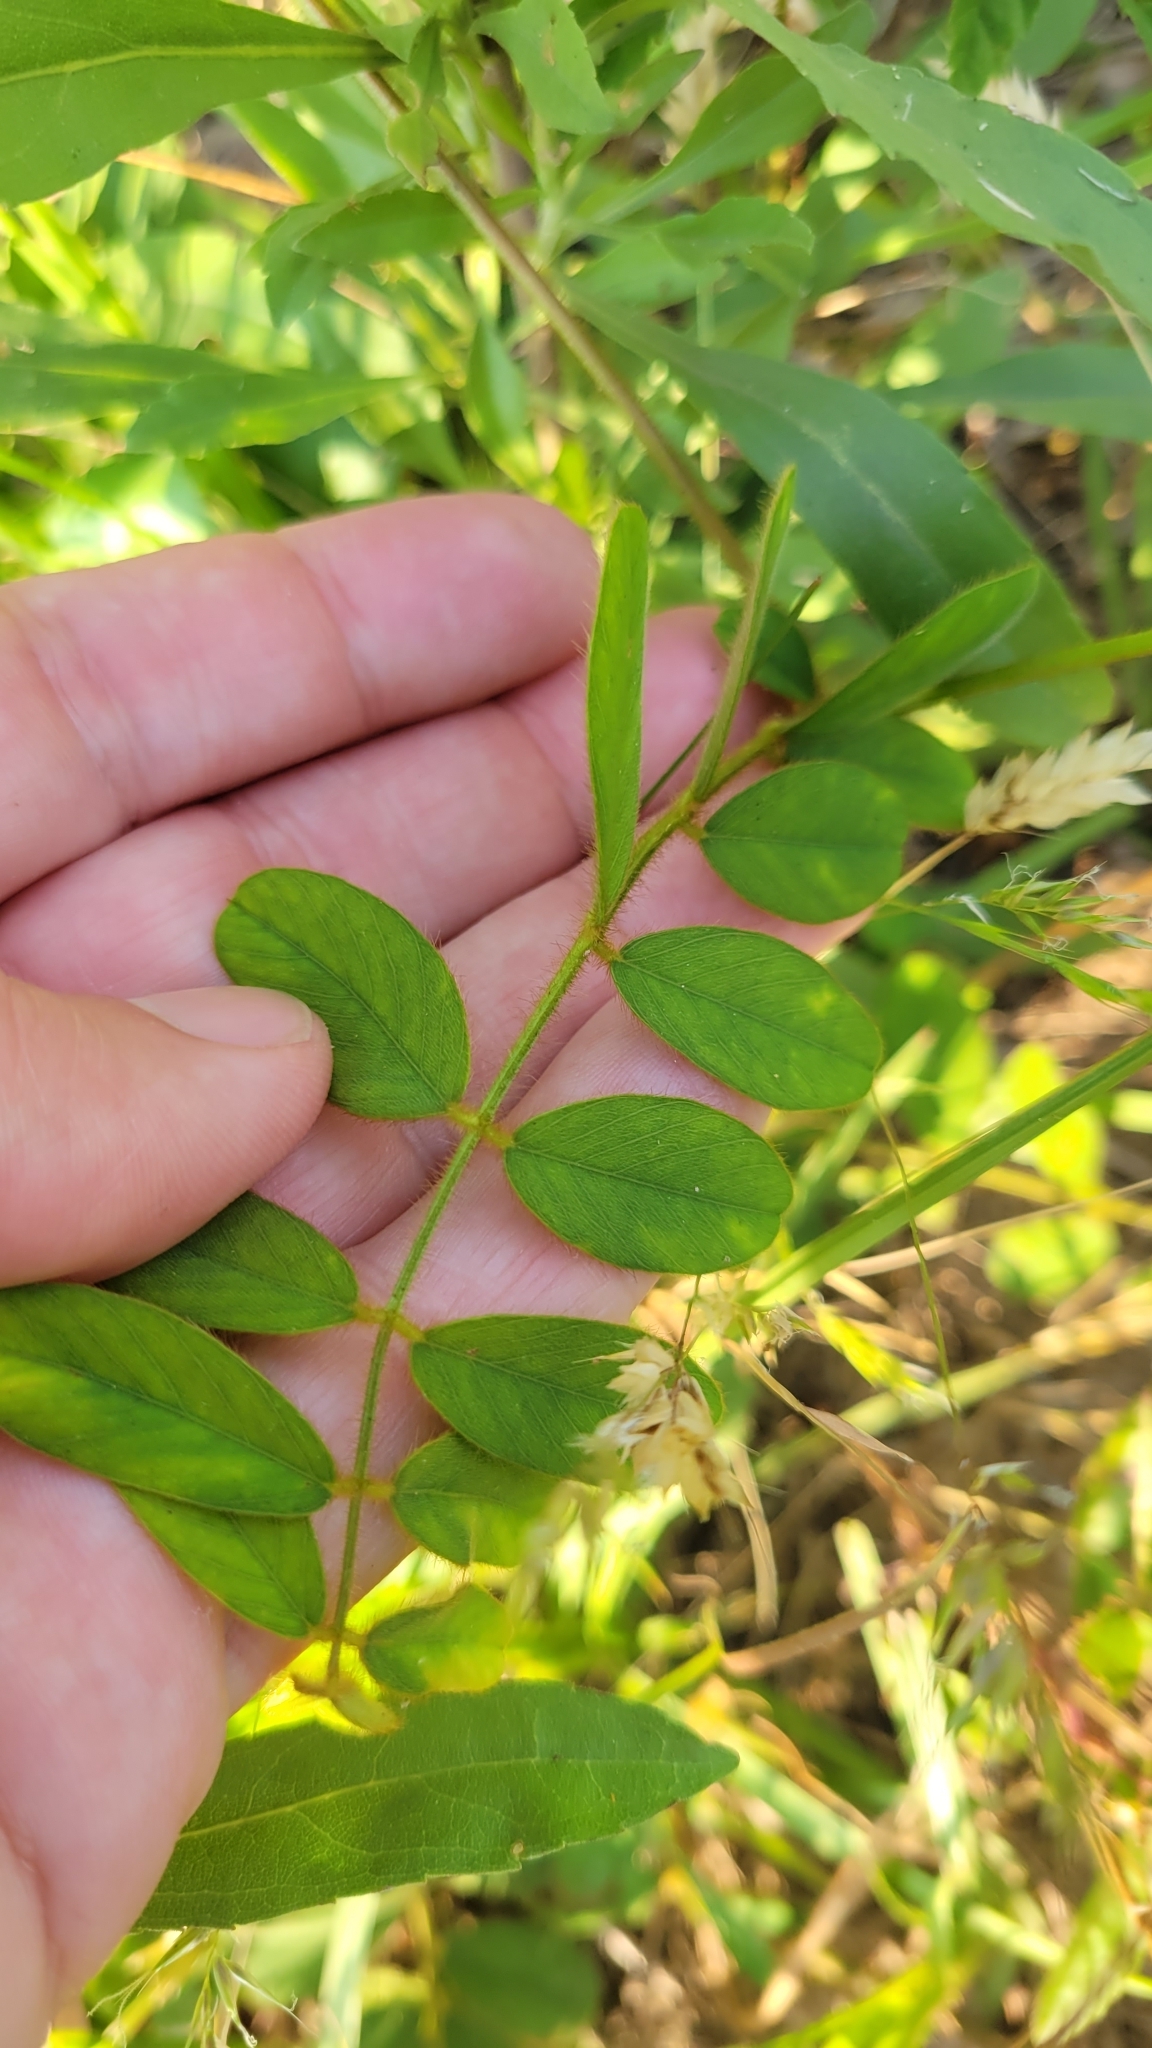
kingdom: Plantae
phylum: Tracheophyta
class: Magnoliopsida
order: Fabales
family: Fabaceae
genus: Tephrosia
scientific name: Tephrosia spicata
